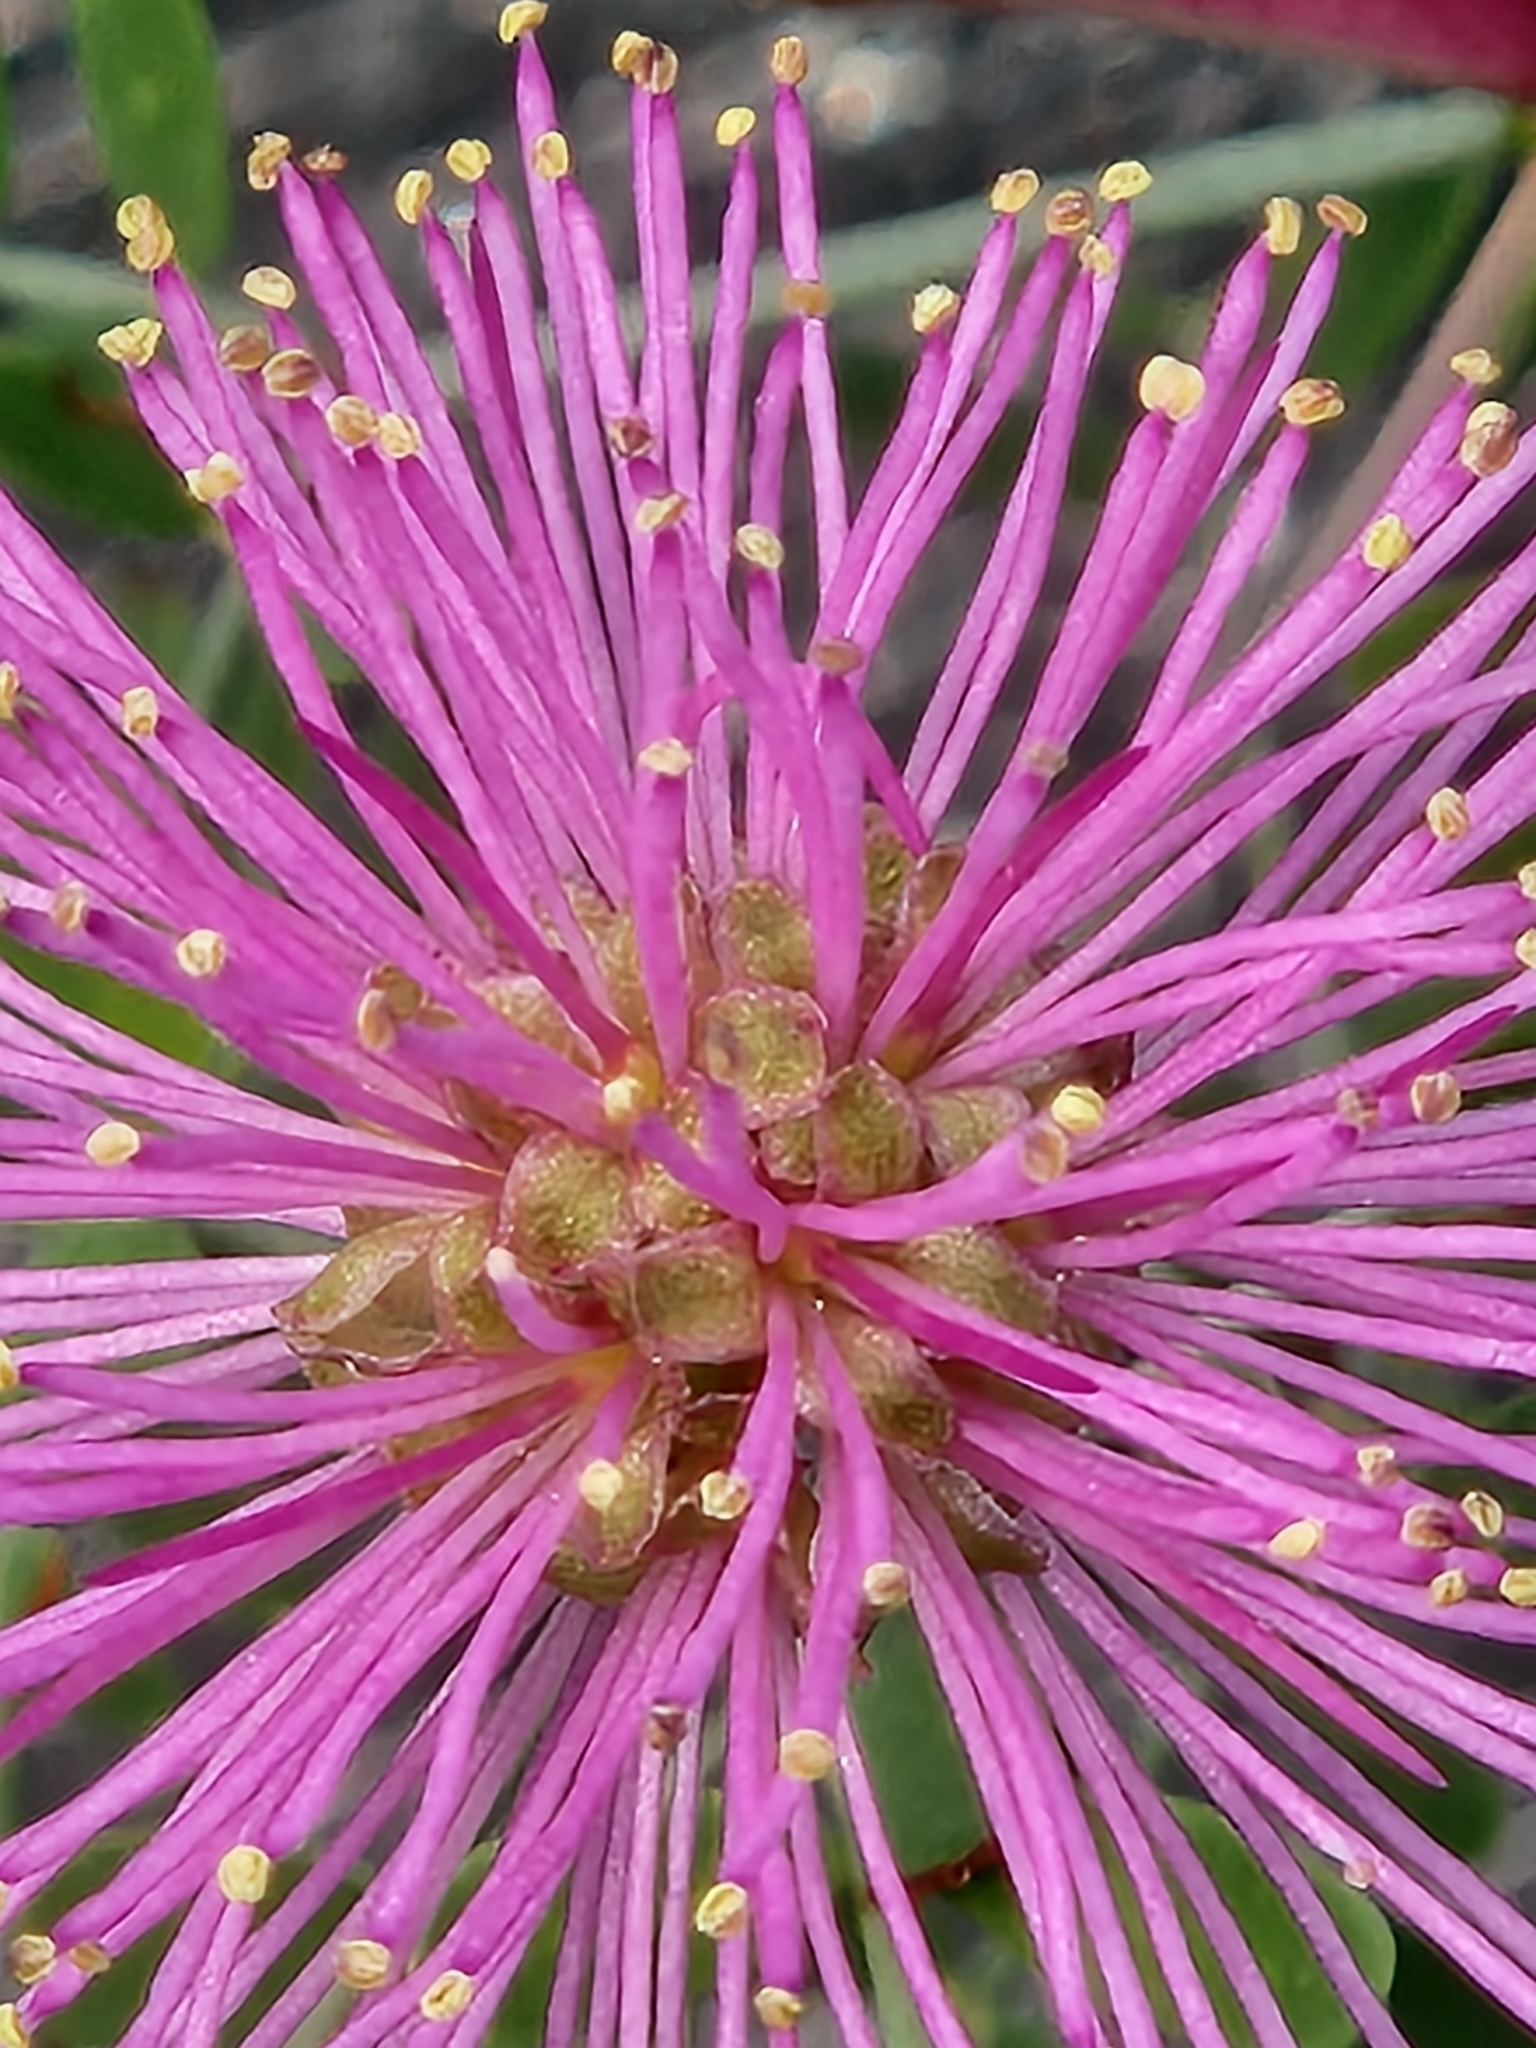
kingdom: Plantae
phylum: Tracheophyta
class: Magnoliopsida
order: Fabales
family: Fabaceae
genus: Mimosa
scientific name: Mimosa borealis
